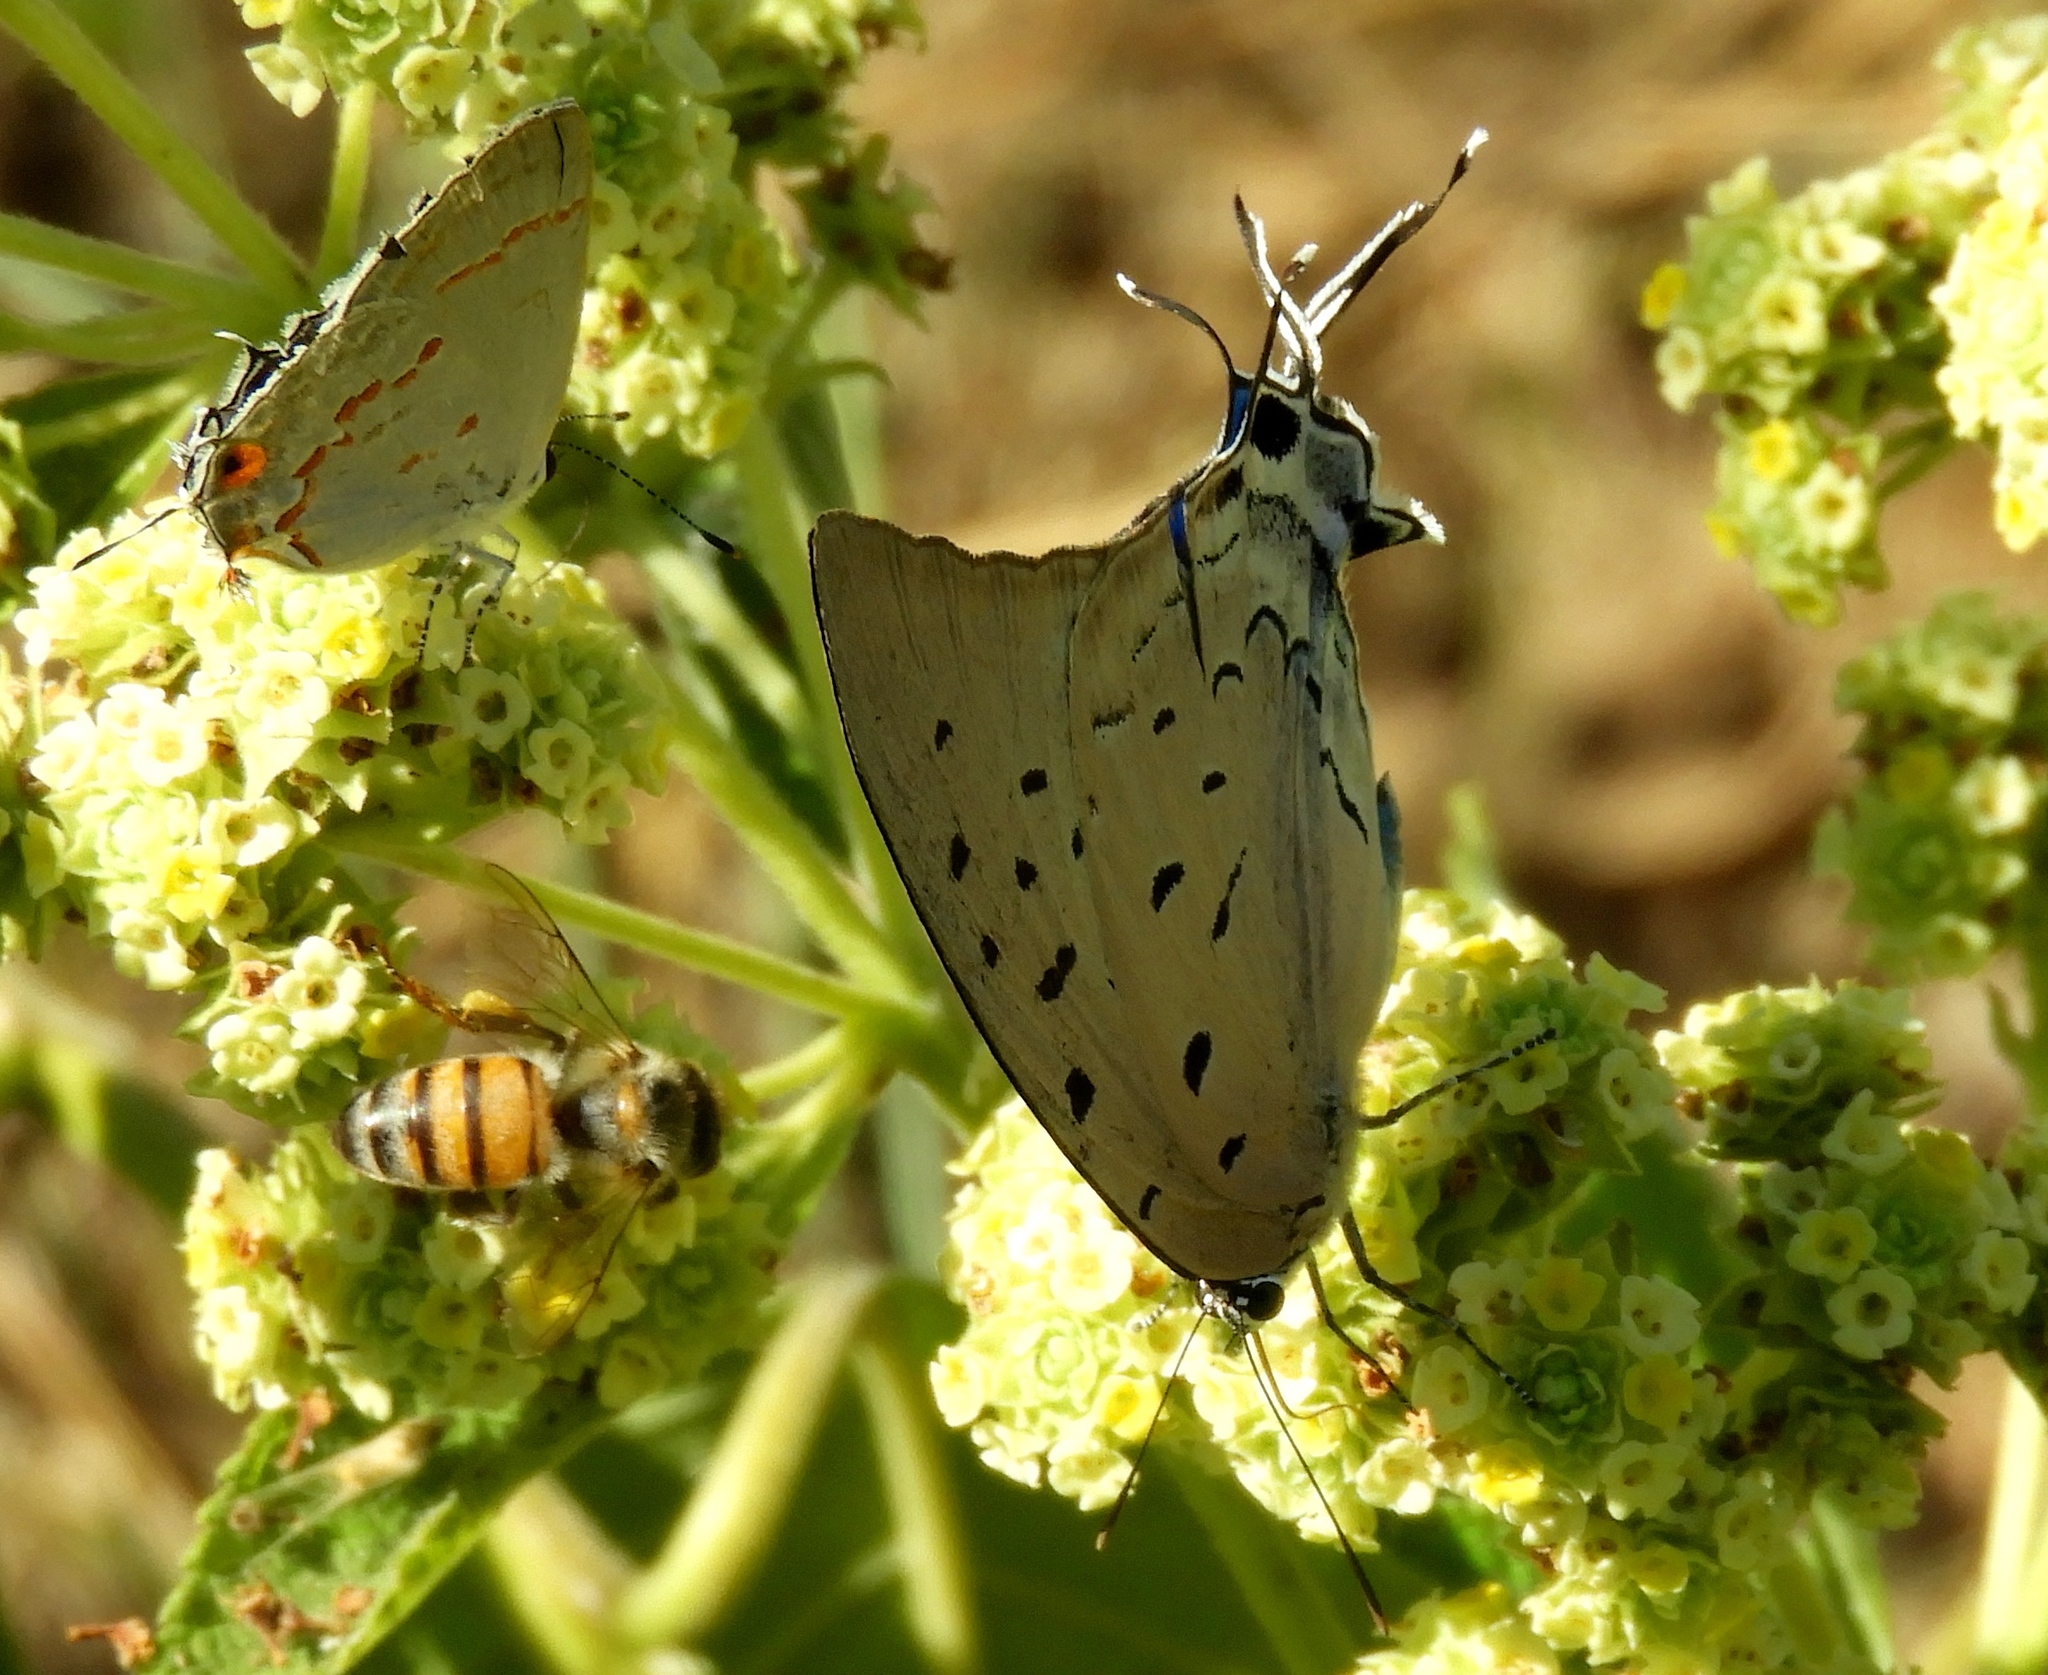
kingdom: Animalia
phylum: Arthropoda
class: Insecta
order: Lepidoptera
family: Lycaenidae
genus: Pseudolycaena
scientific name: Pseudolycaena damo
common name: Sky-blue hairstreak
